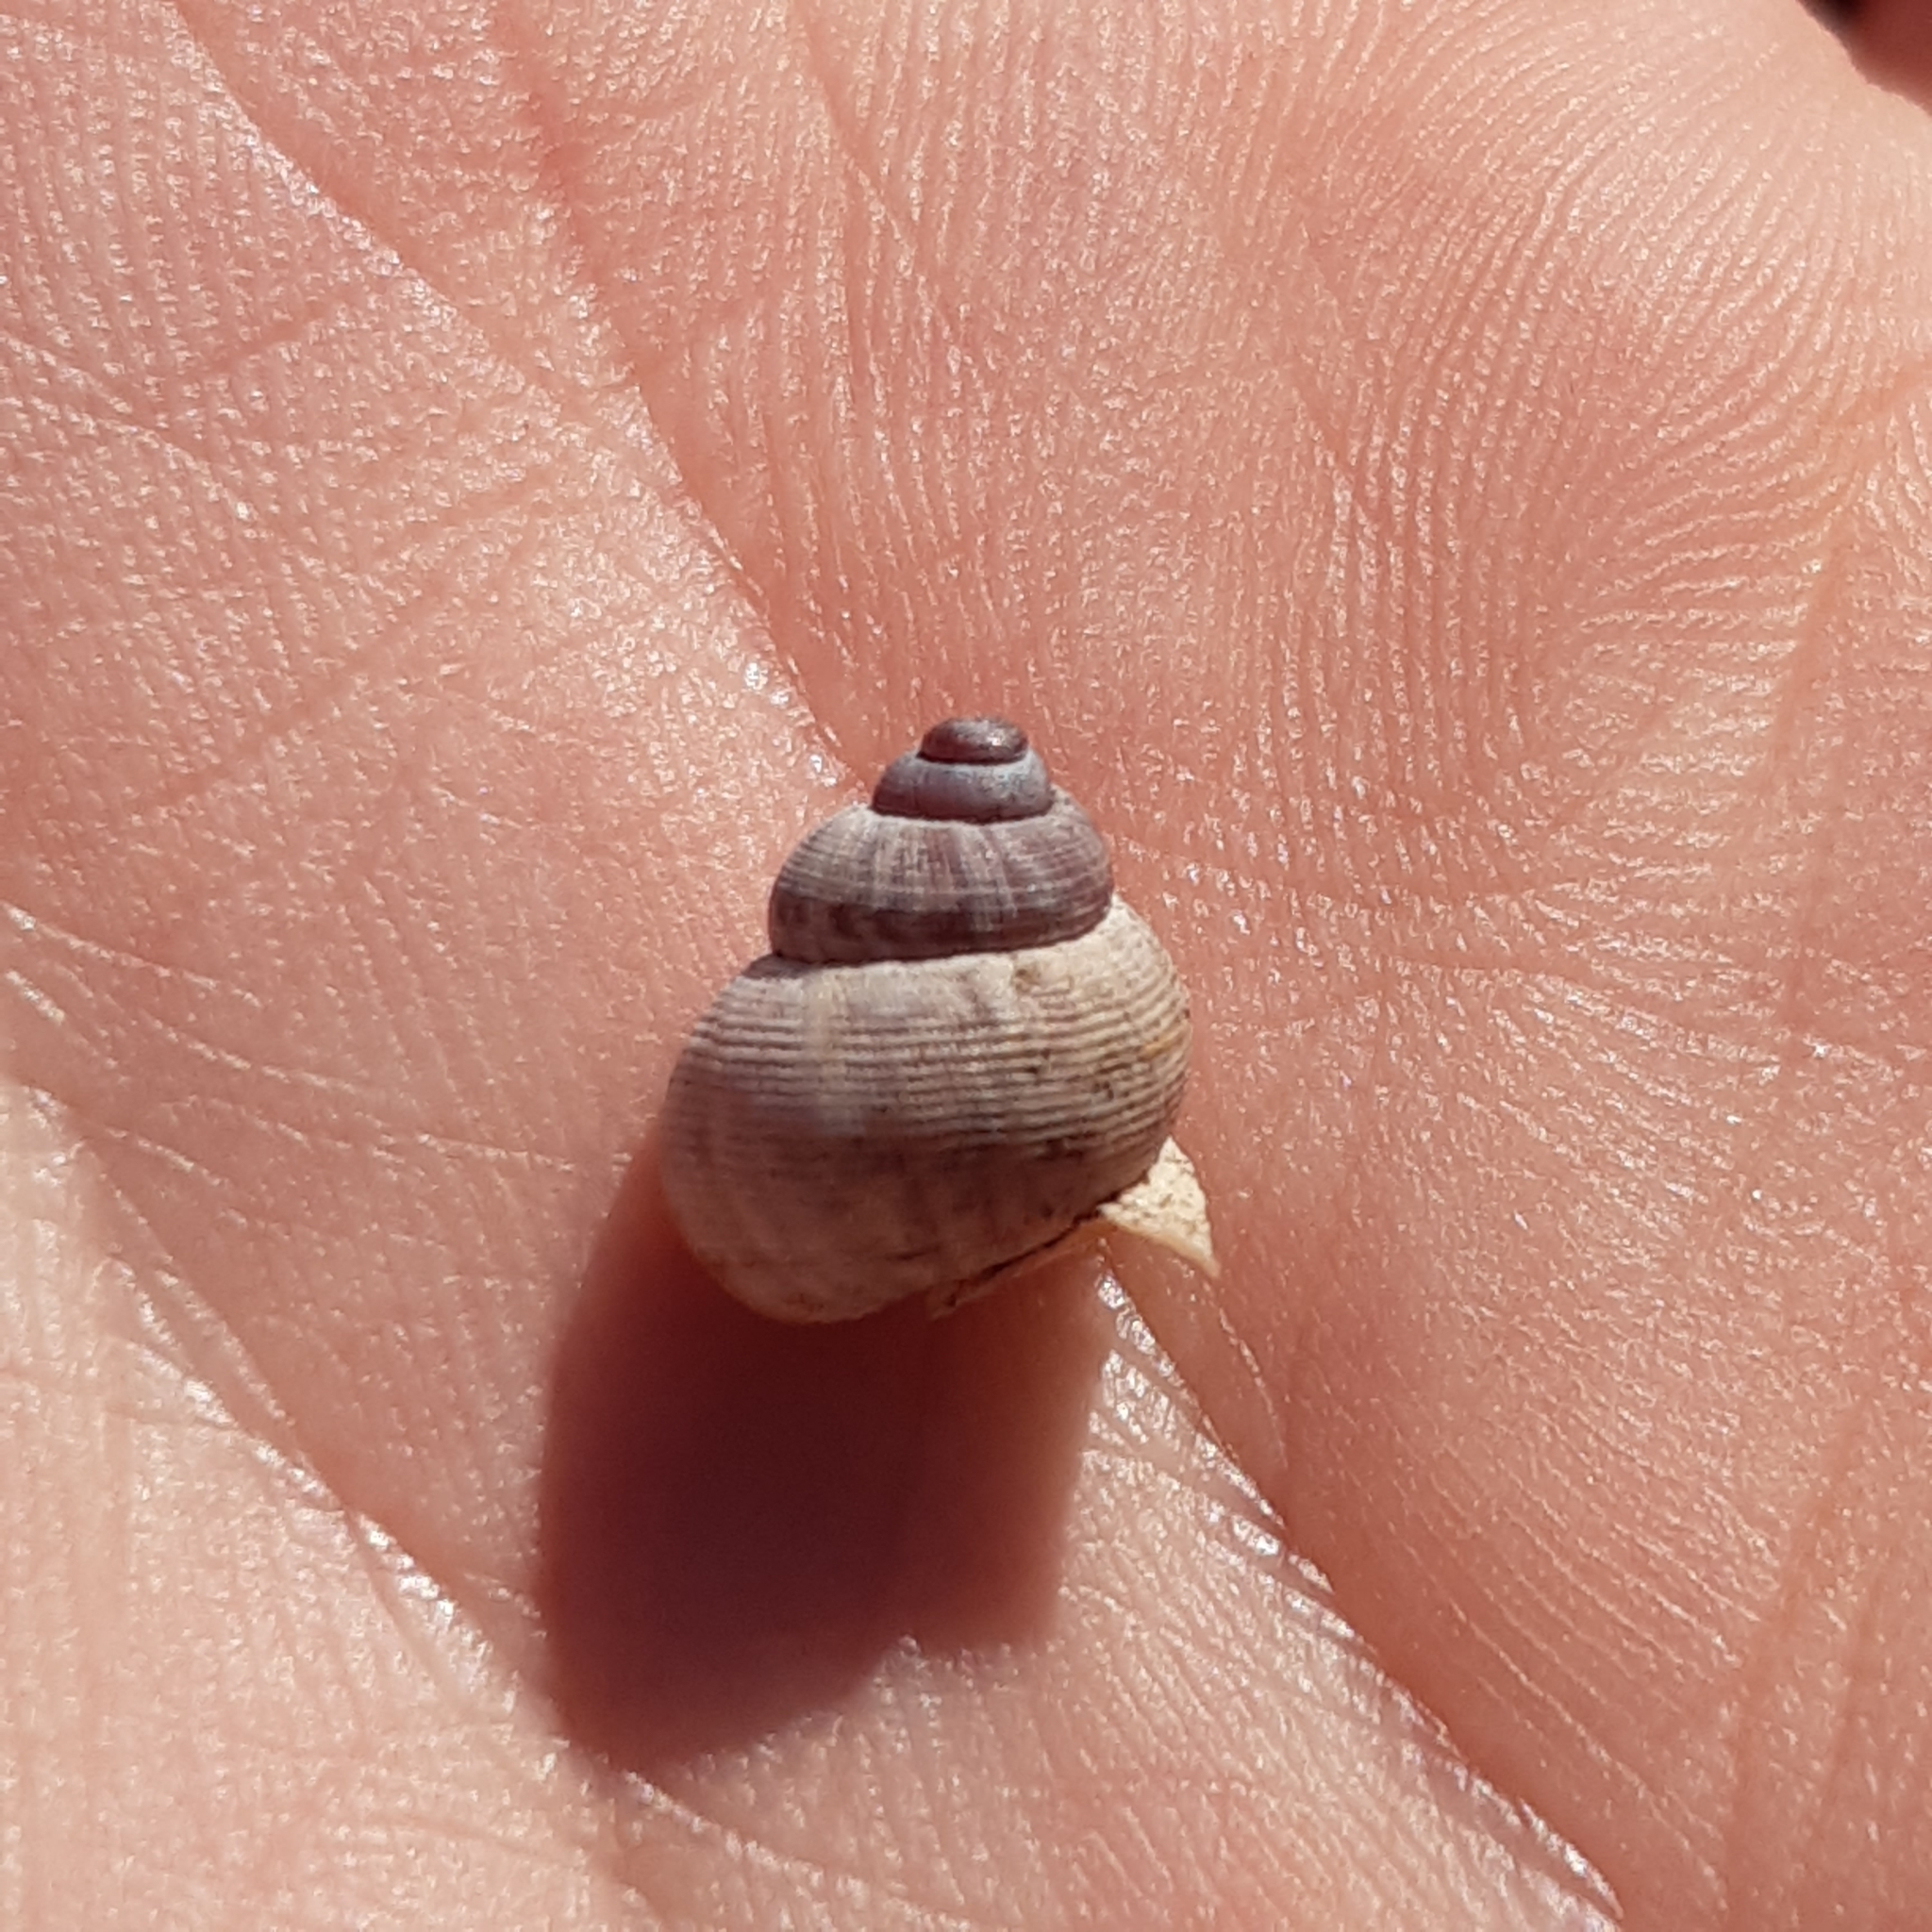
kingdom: Animalia
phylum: Mollusca
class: Gastropoda
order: Littorinimorpha
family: Pomatiidae
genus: Pomatias
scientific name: Pomatias elegans
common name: Red-mouthed snail
